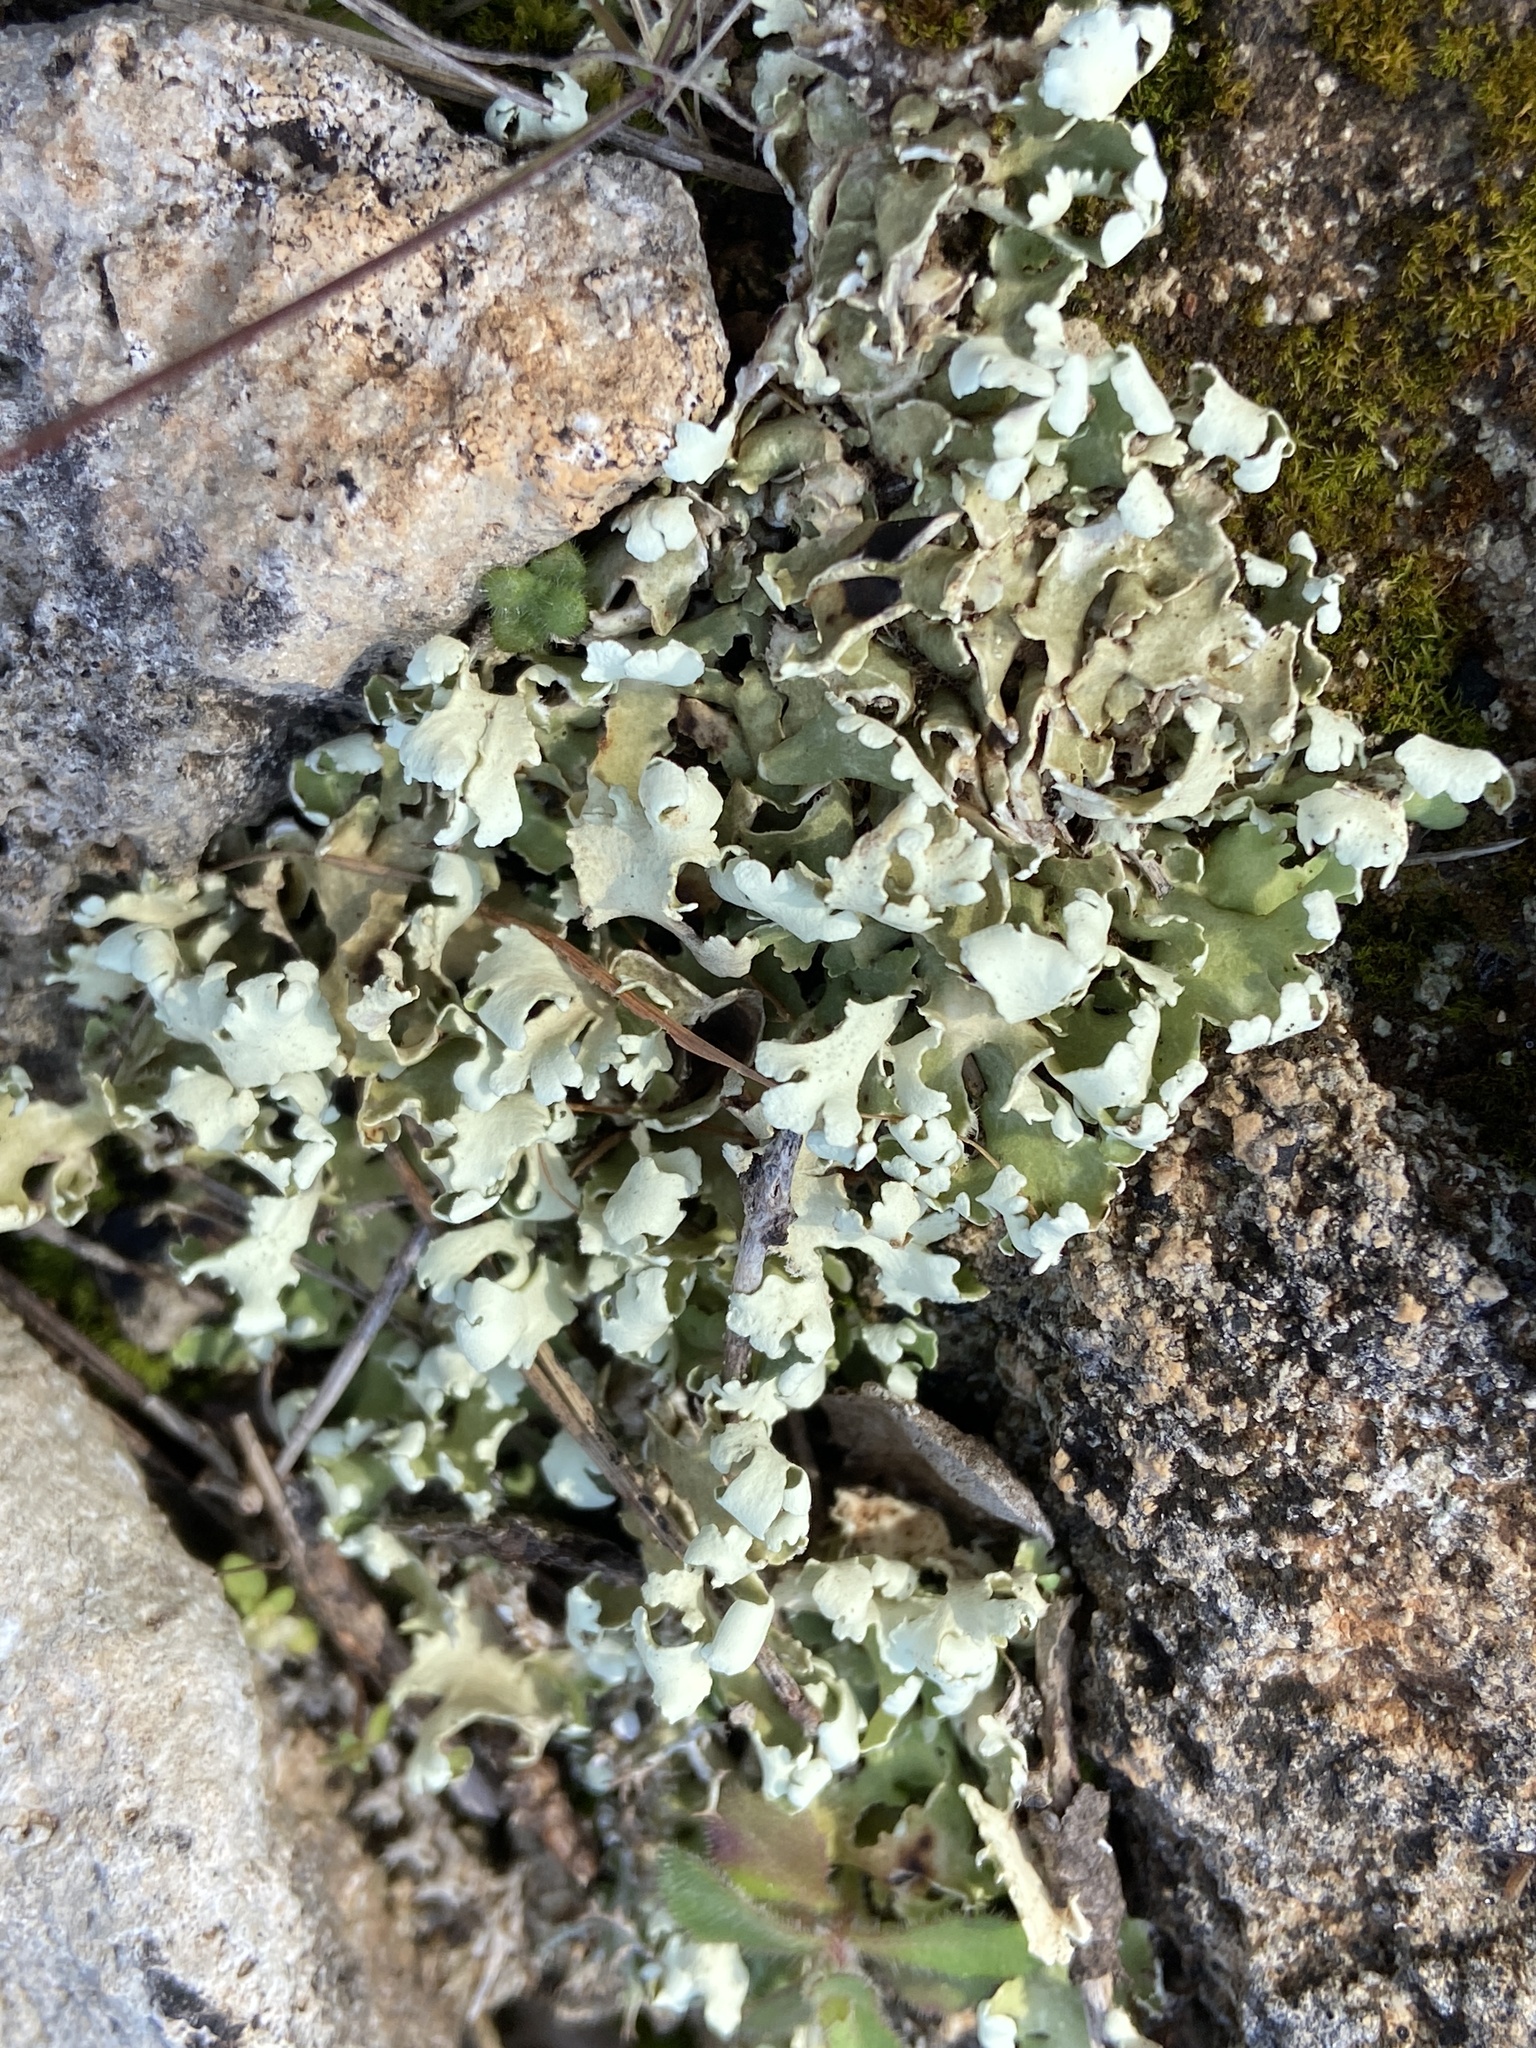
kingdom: Fungi
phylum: Ascomycota
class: Lecanoromycetes
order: Lecanorales
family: Cladoniaceae
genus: Cladonia
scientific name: Cladonia foliacea
